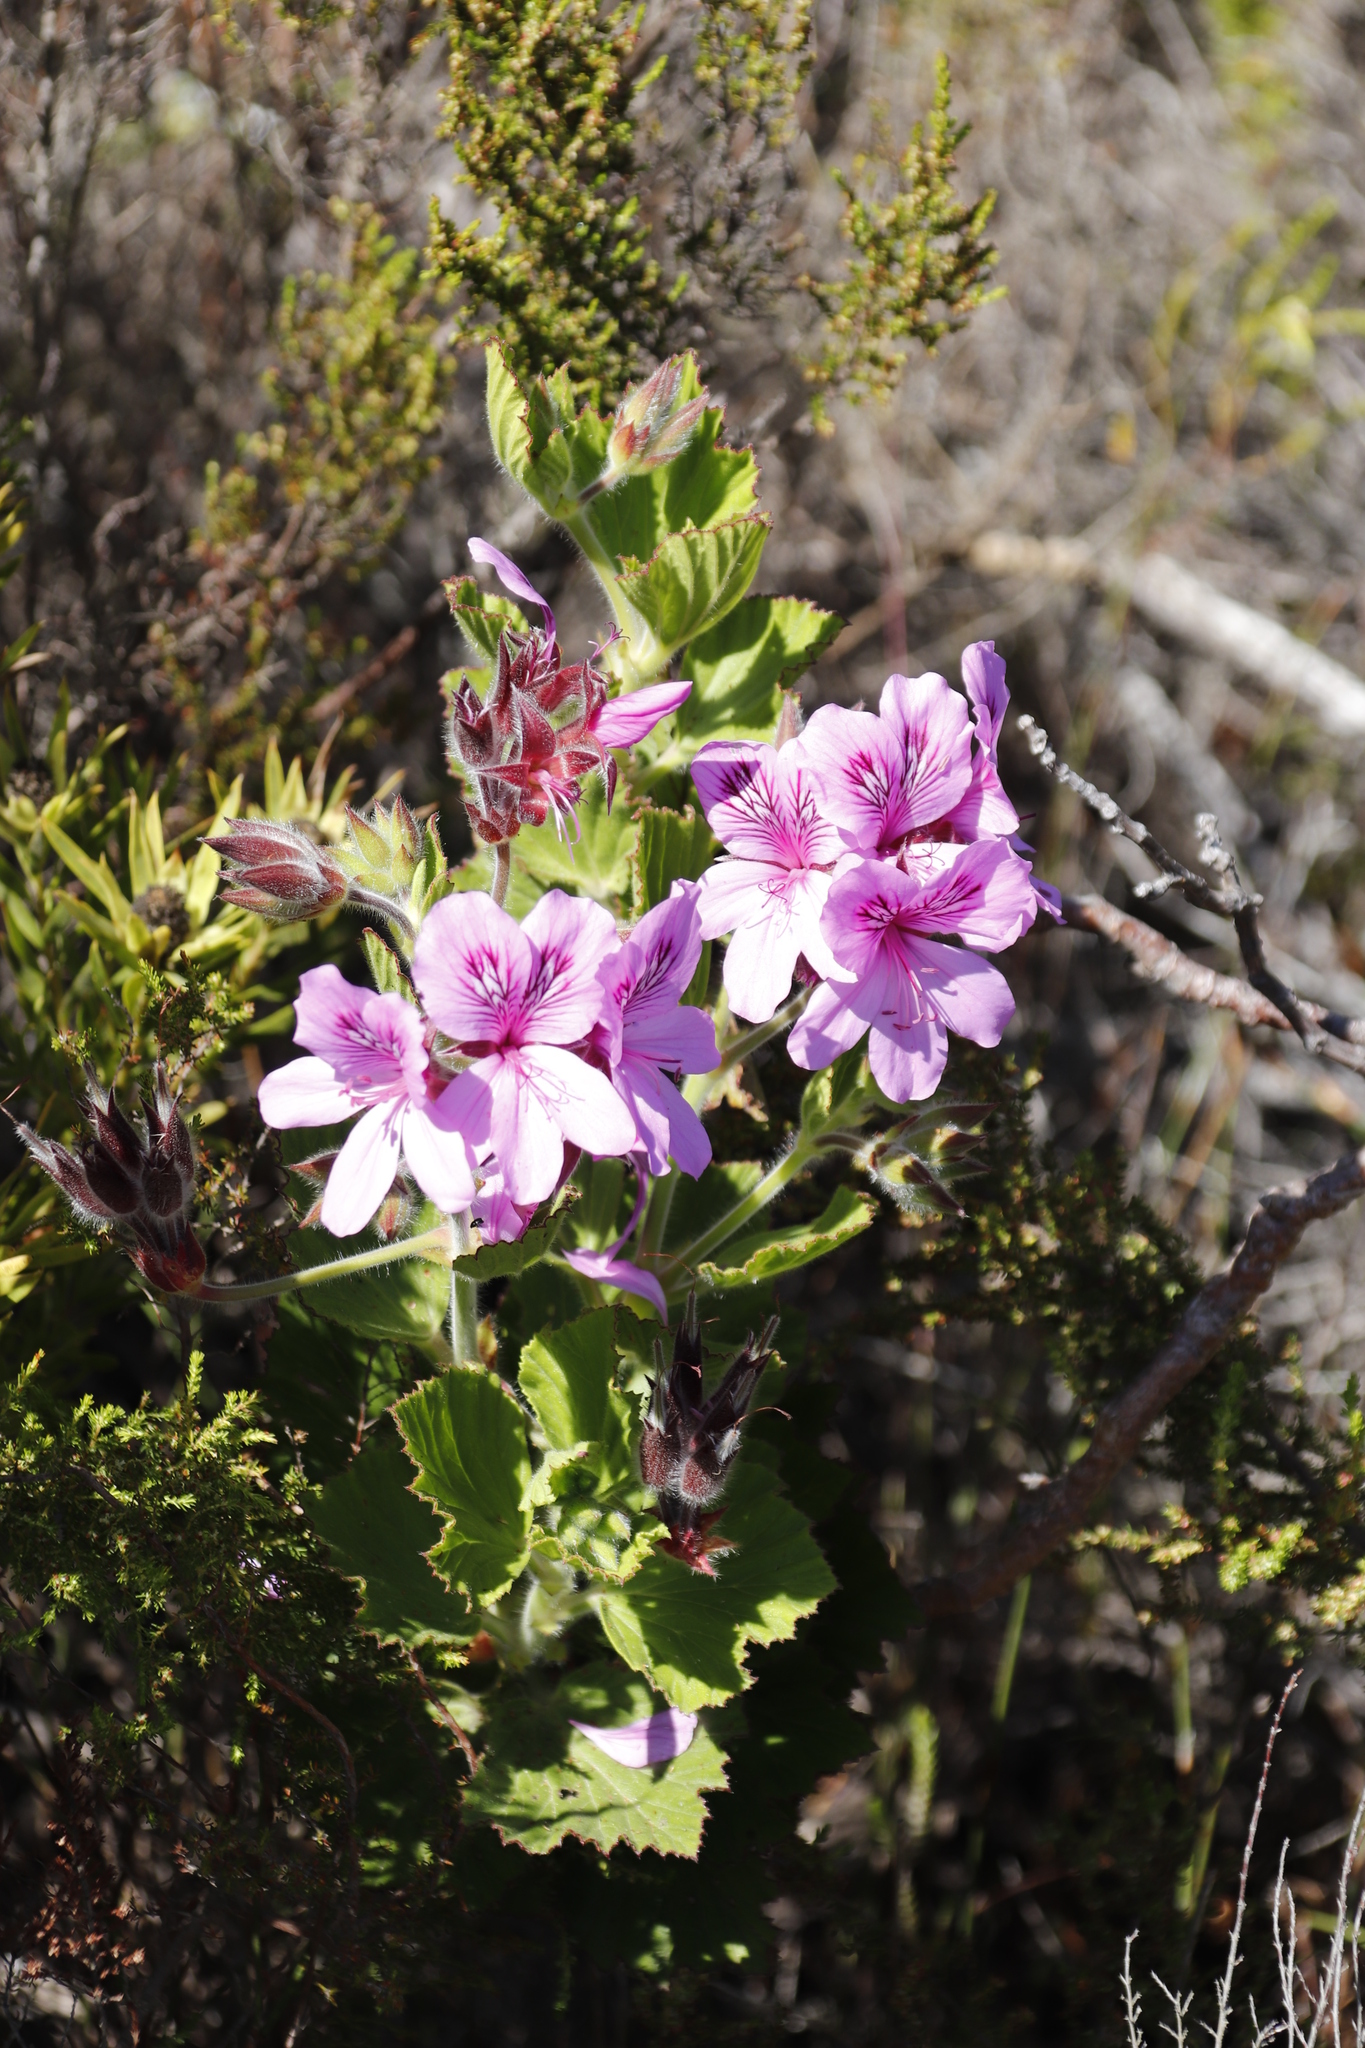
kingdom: Plantae
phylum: Tracheophyta
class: Magnoliopsida
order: Geraniales
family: Geraniaceae
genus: Pelargonium
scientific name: Pelargonium cucullatum
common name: Tree pelargonium
